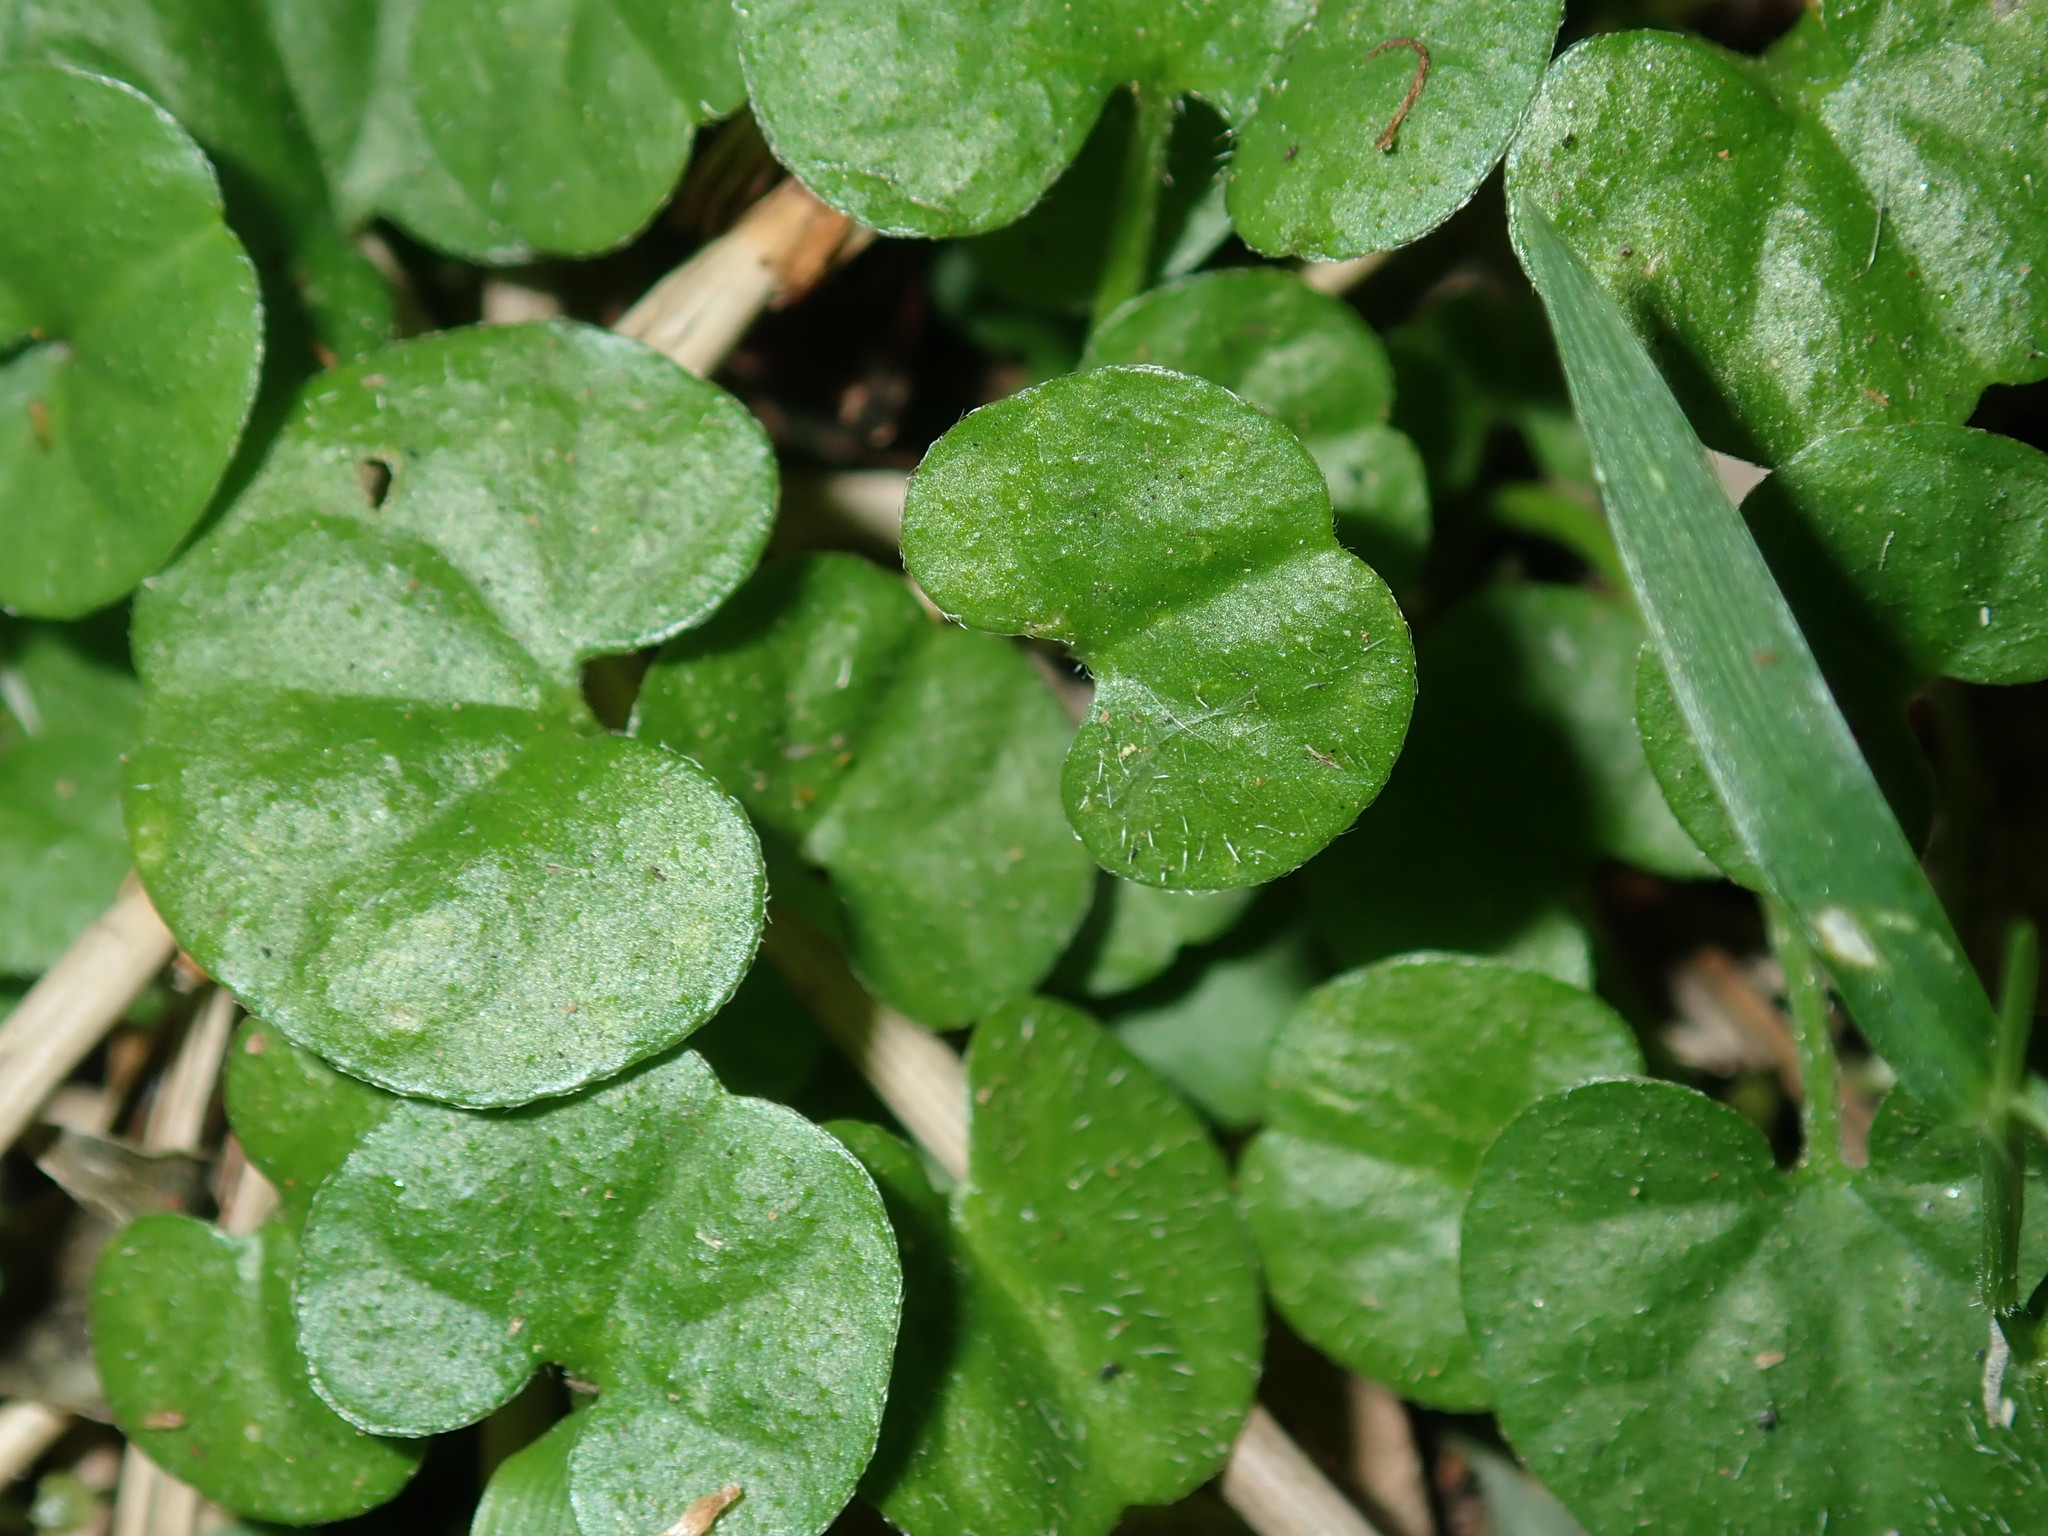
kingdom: Plantae
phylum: Tracheophyta
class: Magnoliopsida
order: Solanales
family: Convolvulaceae
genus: Dichondra
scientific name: Dichondra repens
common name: Kidneyweed
